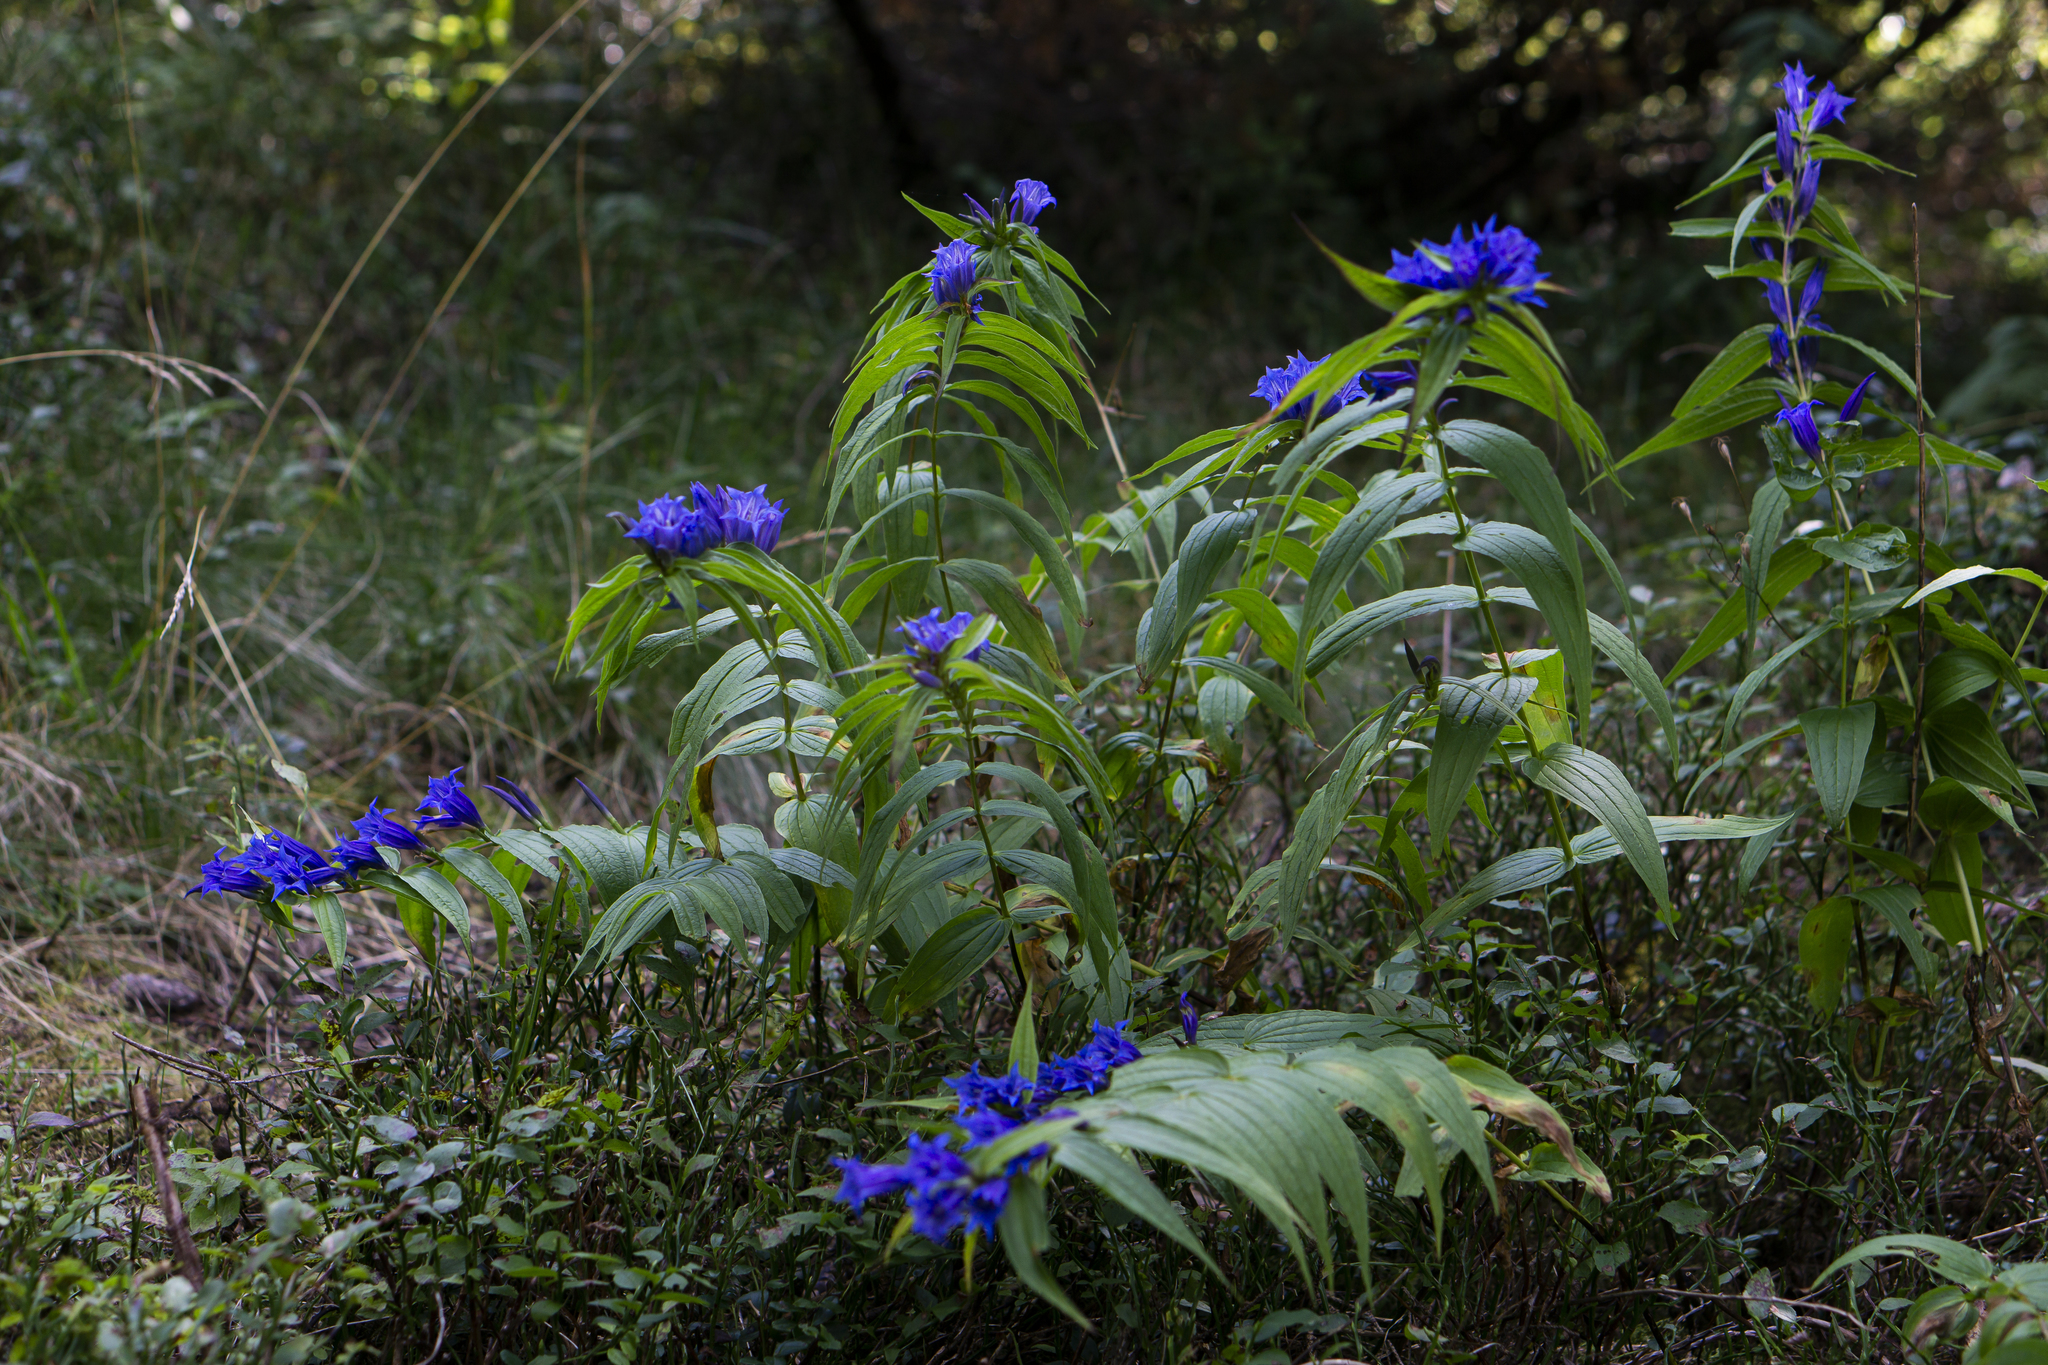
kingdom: Plantae
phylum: Tracheophyta
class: Magnoliopsida
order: Gentianales
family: Gentianaceae
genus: Gentiana
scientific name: Gentiana asclepiadea
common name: Willow gentian
